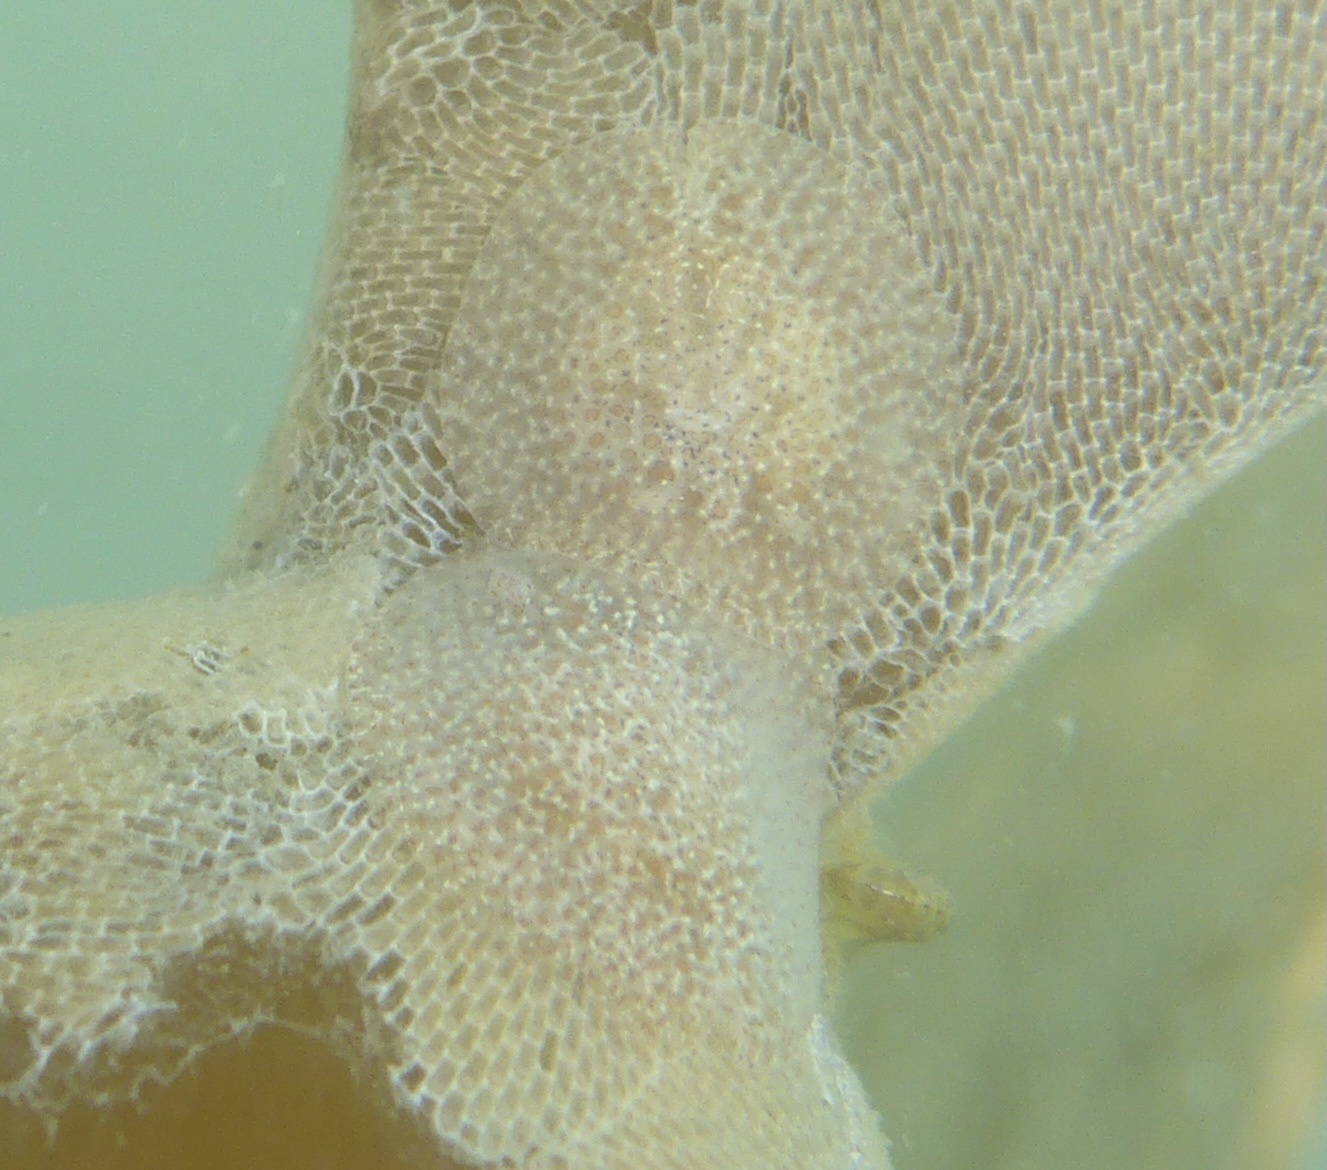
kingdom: Animalia
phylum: Mollusca
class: Gastropoda
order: Nudibranchia
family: Corambidae
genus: Corambe
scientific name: Corambe pacifica
